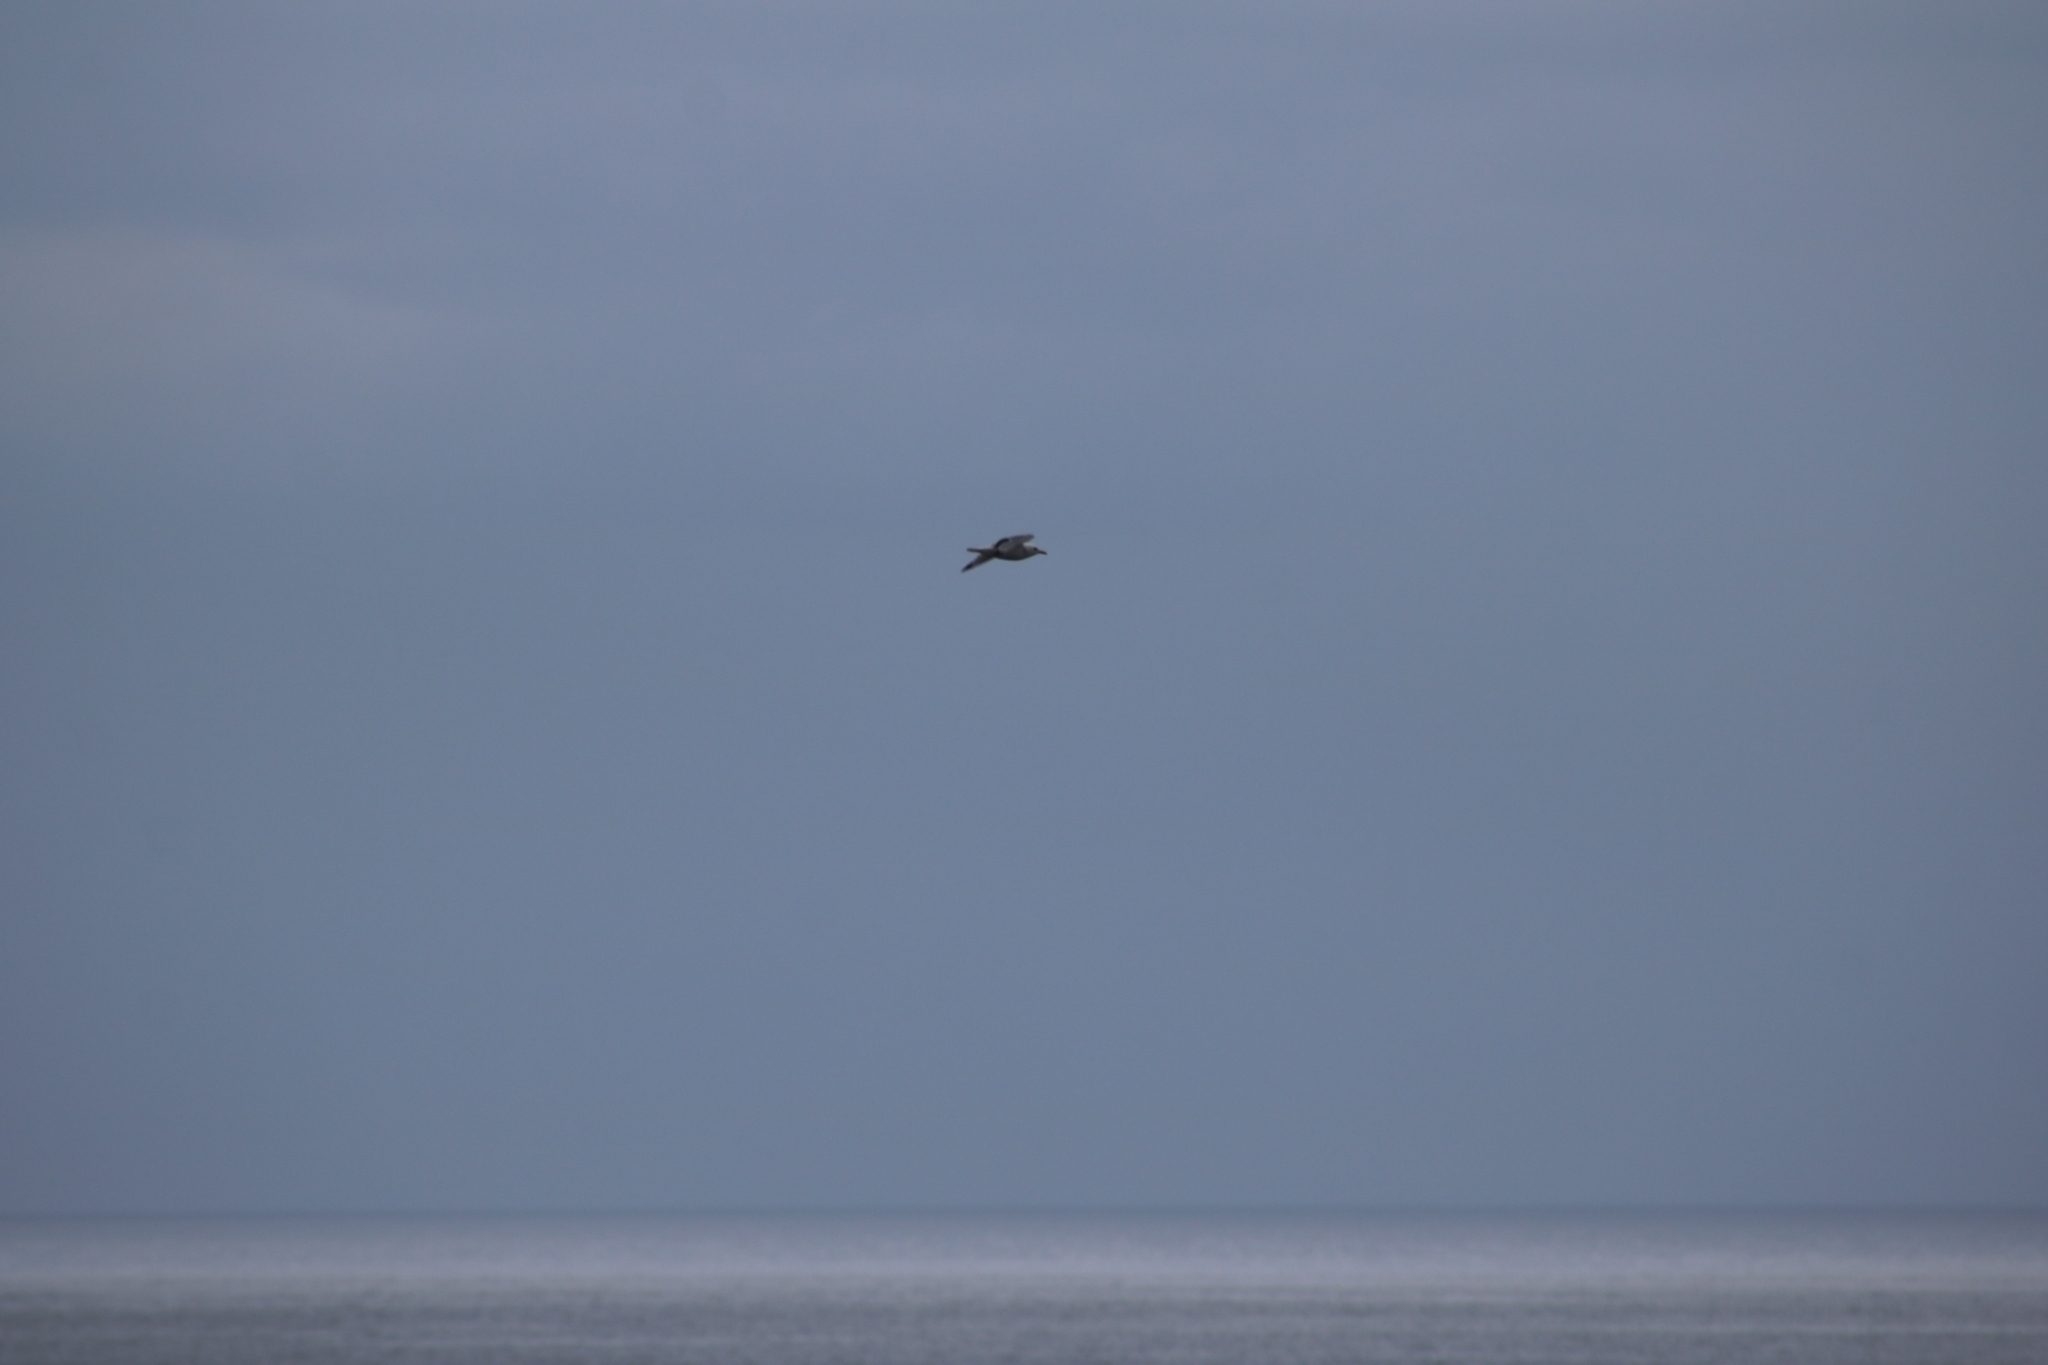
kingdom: Animalia
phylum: Chordata
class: Aves
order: Charadriiformes
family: Laridae
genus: Rissa
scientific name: Rissa tridactyla
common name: Black-legged kittiwake
